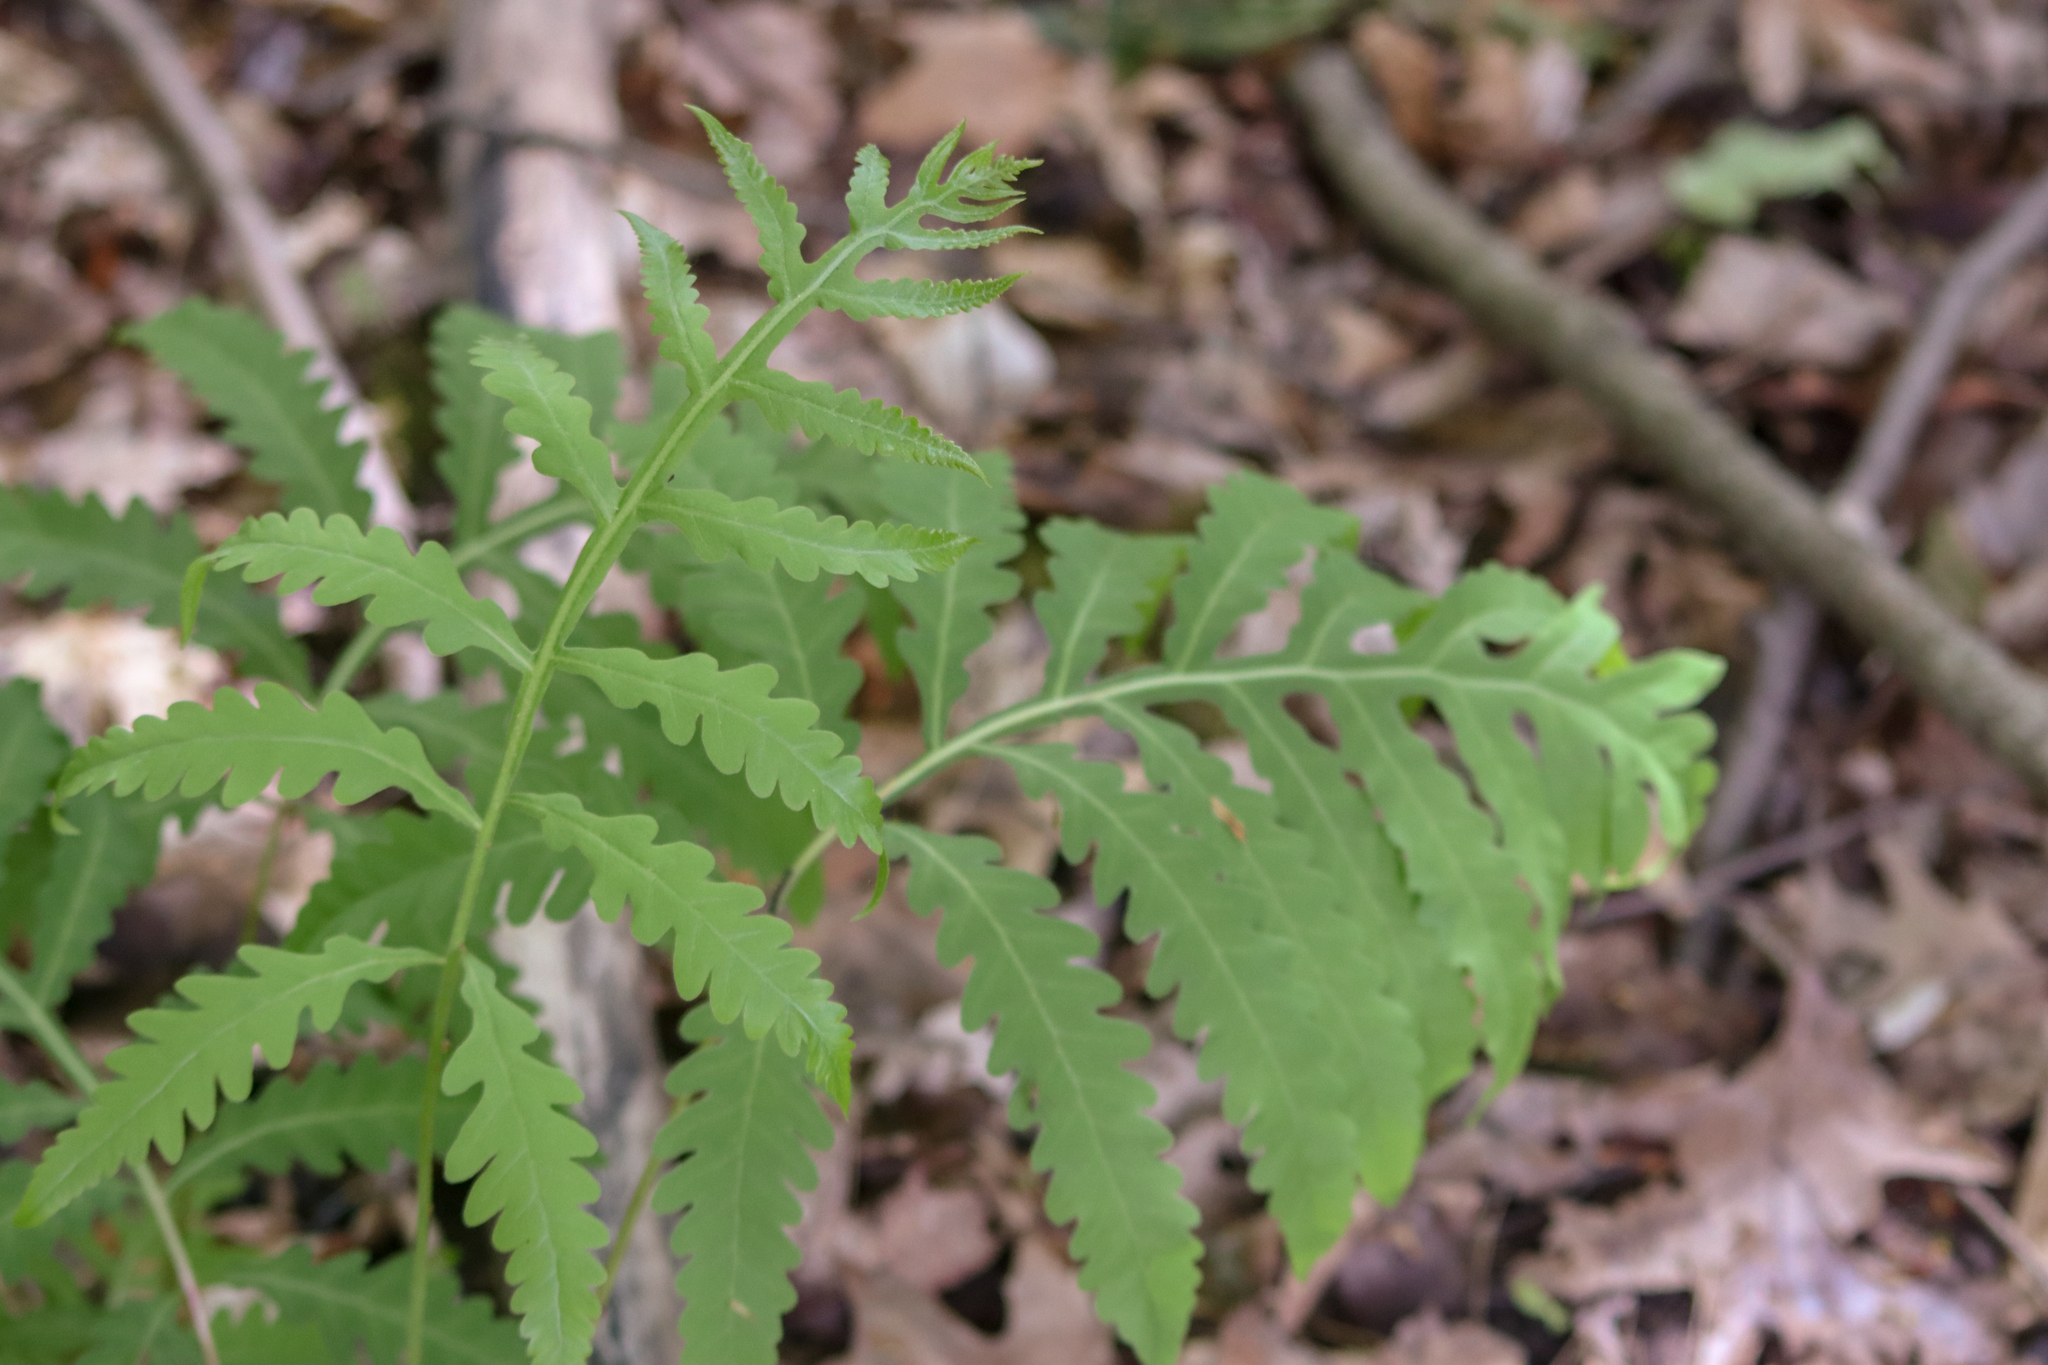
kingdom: Plantae
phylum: Tracheophyta
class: Polypodiopsida
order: Polypodiales
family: Onocleaceae
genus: Onoclea
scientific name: Onoclea sensibilis
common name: Sensitive fern
